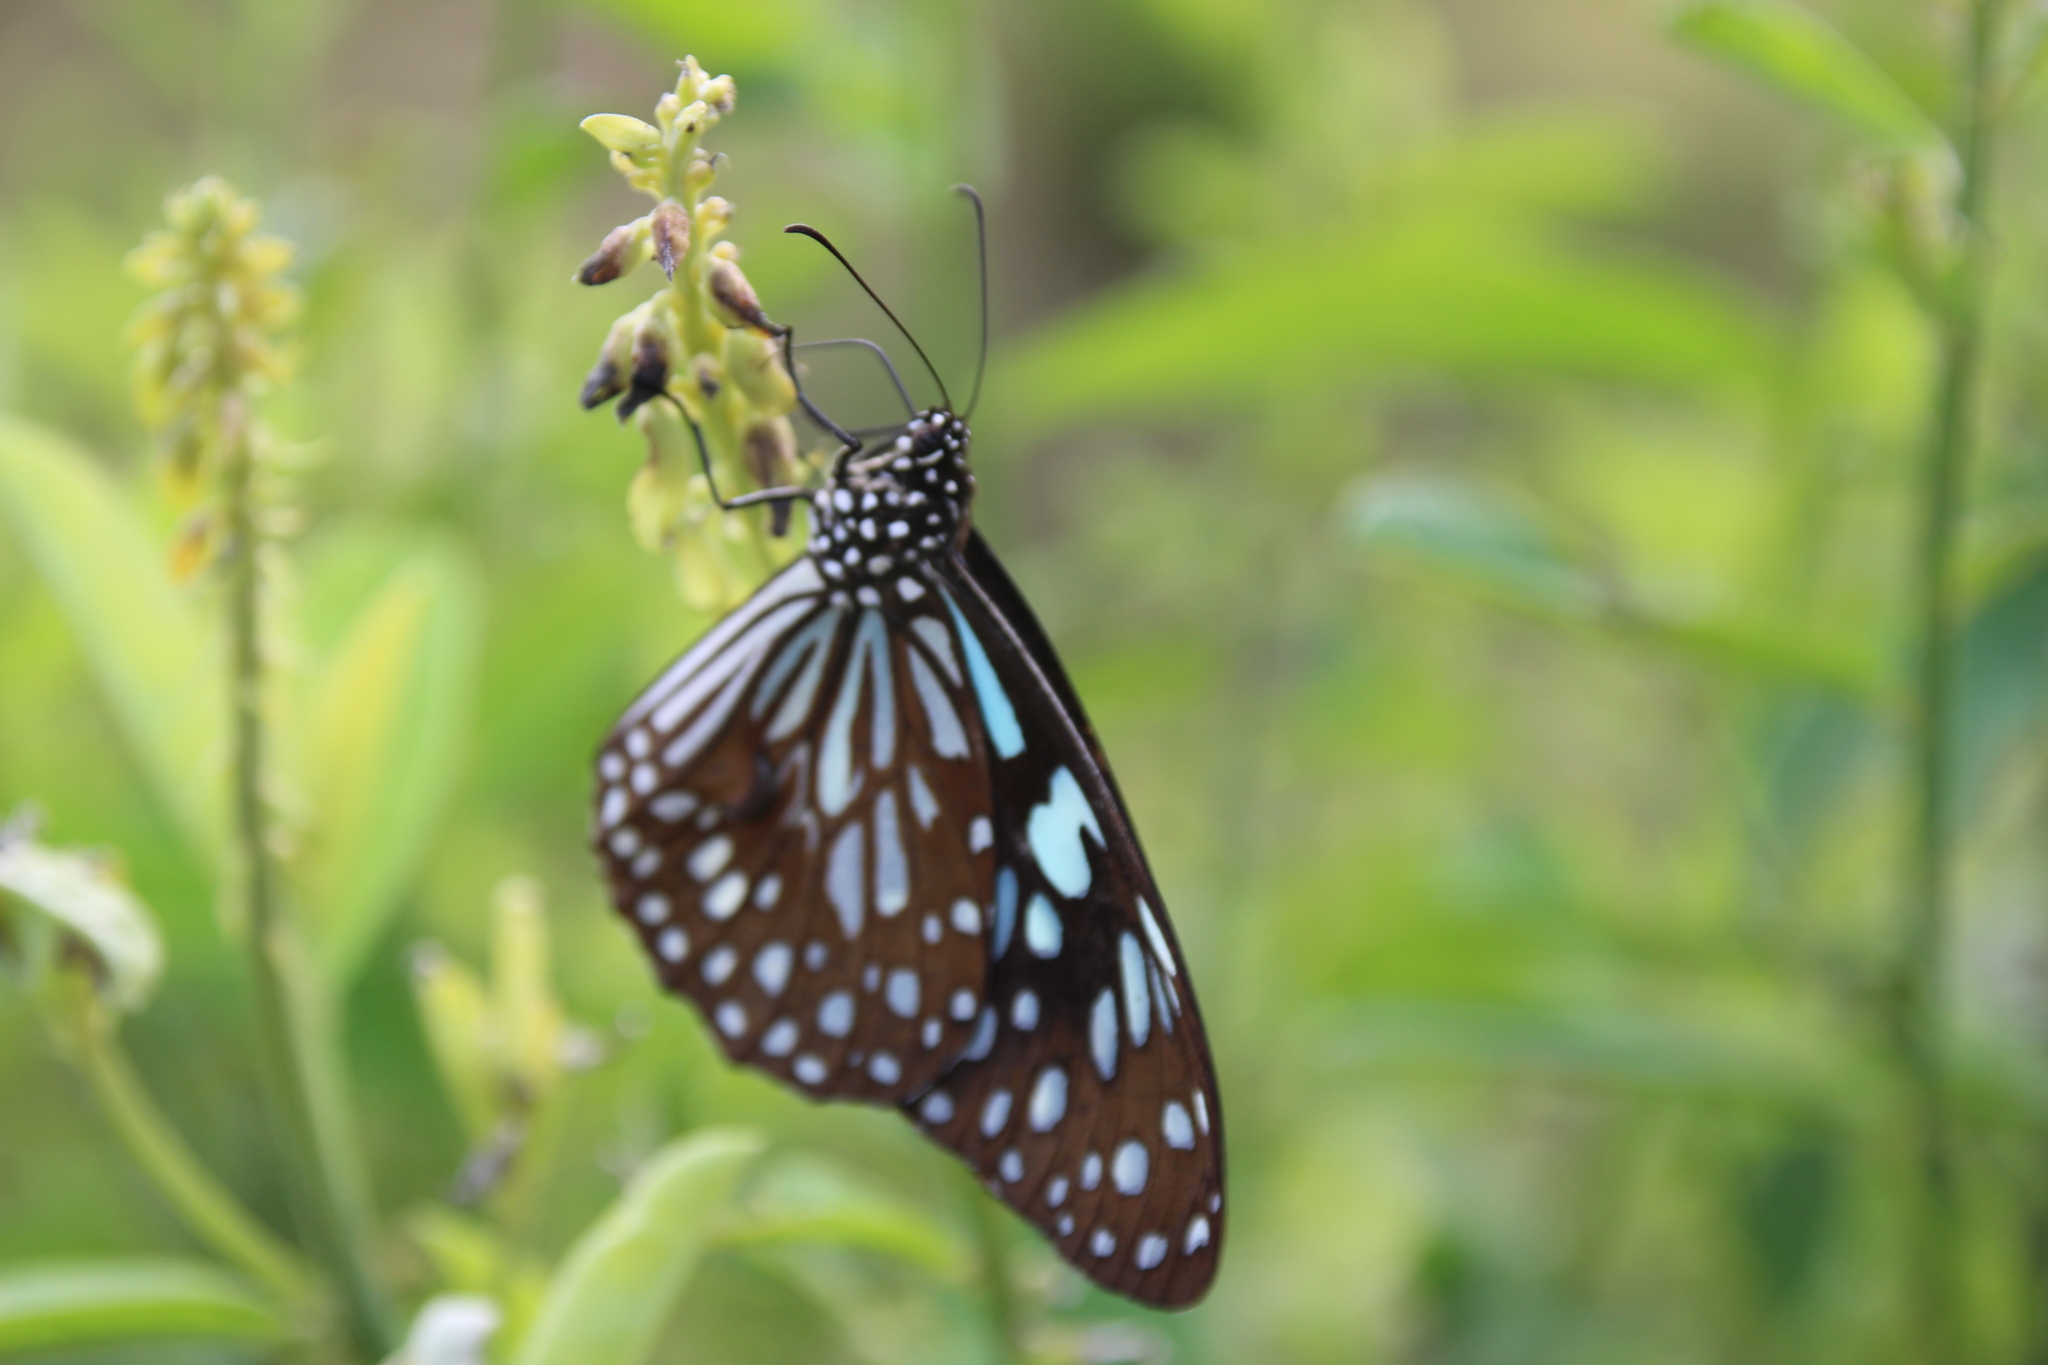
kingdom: Animalia
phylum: Arthropoda
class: Insecta
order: Lepidoptera
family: Nymphalidae
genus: Tirumala
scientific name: Tirumala limniace
